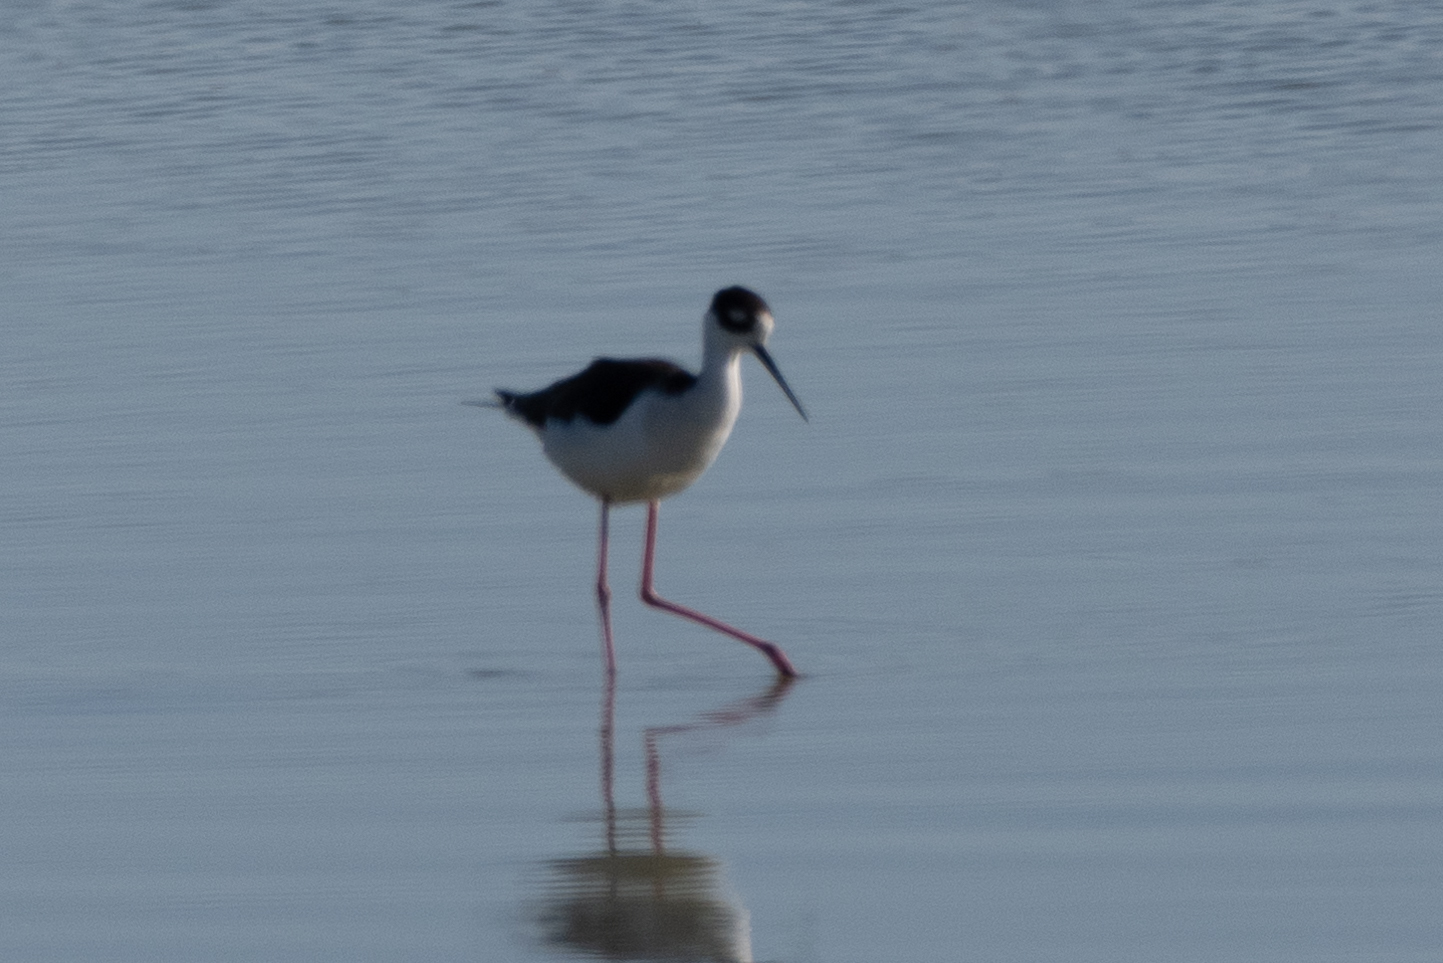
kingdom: Animalia
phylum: Chordata
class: Aves
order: Charadriiformes
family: Recurvirostridae
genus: Himantopus
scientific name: Himantopus mexicanus
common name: Black-necked stilt
